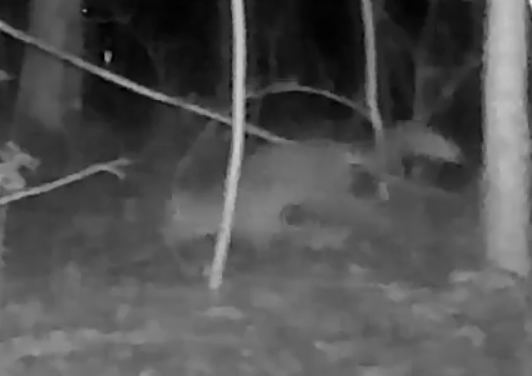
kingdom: Animalia
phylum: Chordata
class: Mammalia
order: Carnivora
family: Canidae
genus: Vulpes
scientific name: Vulpes vulpes
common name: Red fox
